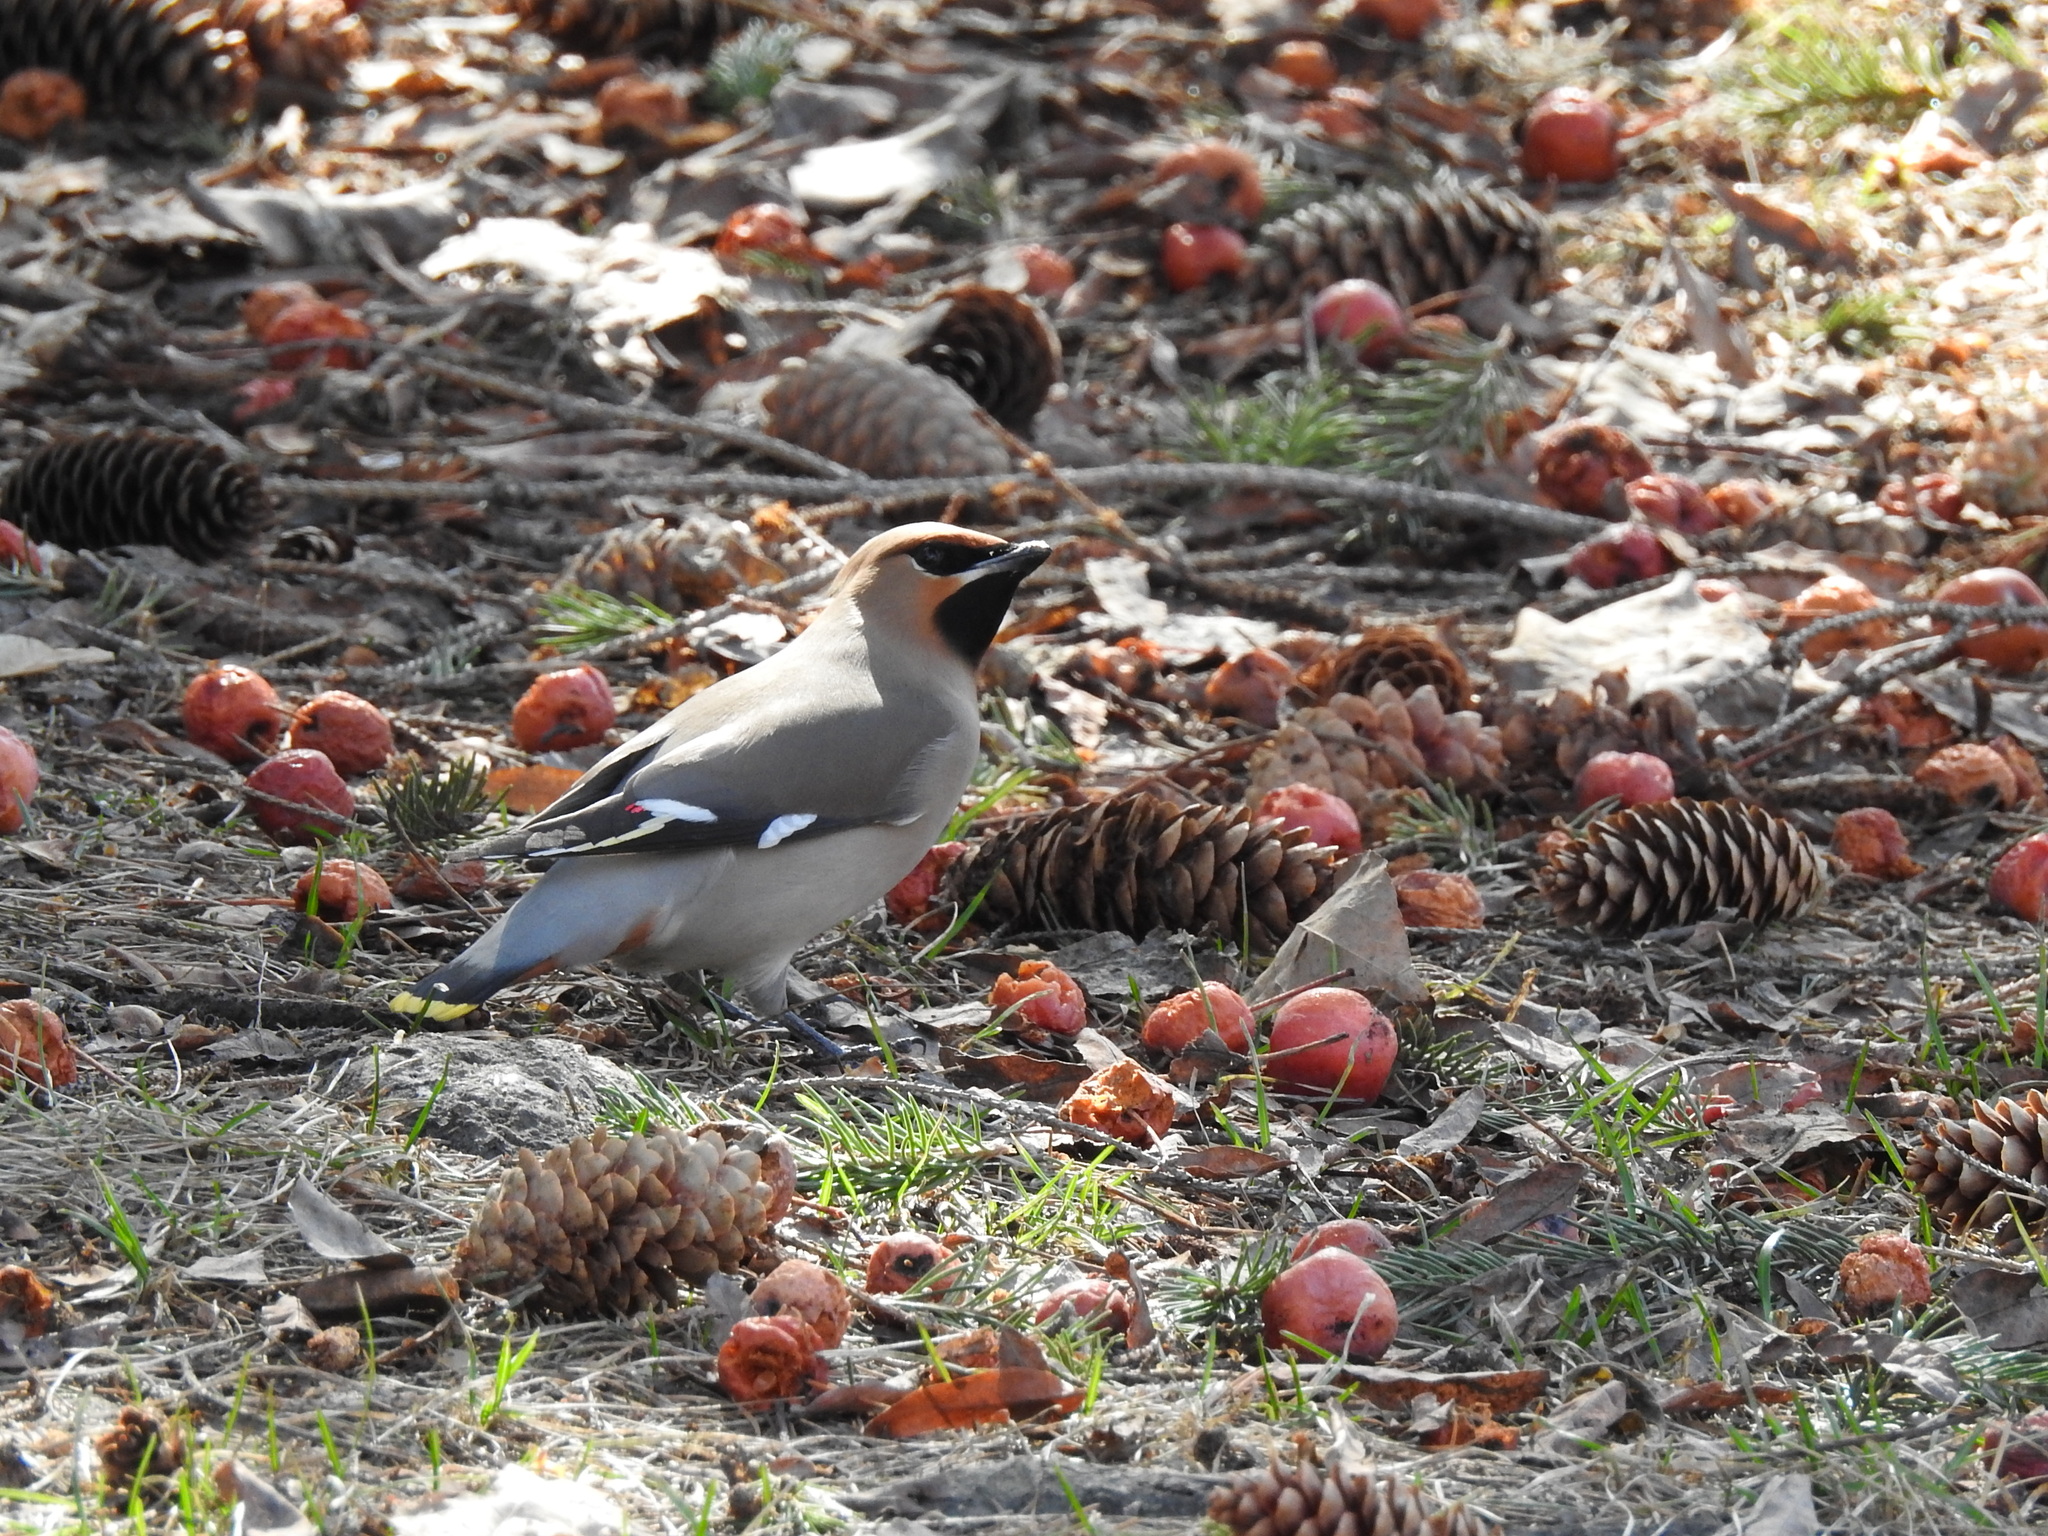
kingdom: Animalia
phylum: Chordata
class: Aves
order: Passeriformes
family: Bombycillidae
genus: Bombycilla
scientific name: Bombycilla garrulus
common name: Bohemian waxwing
